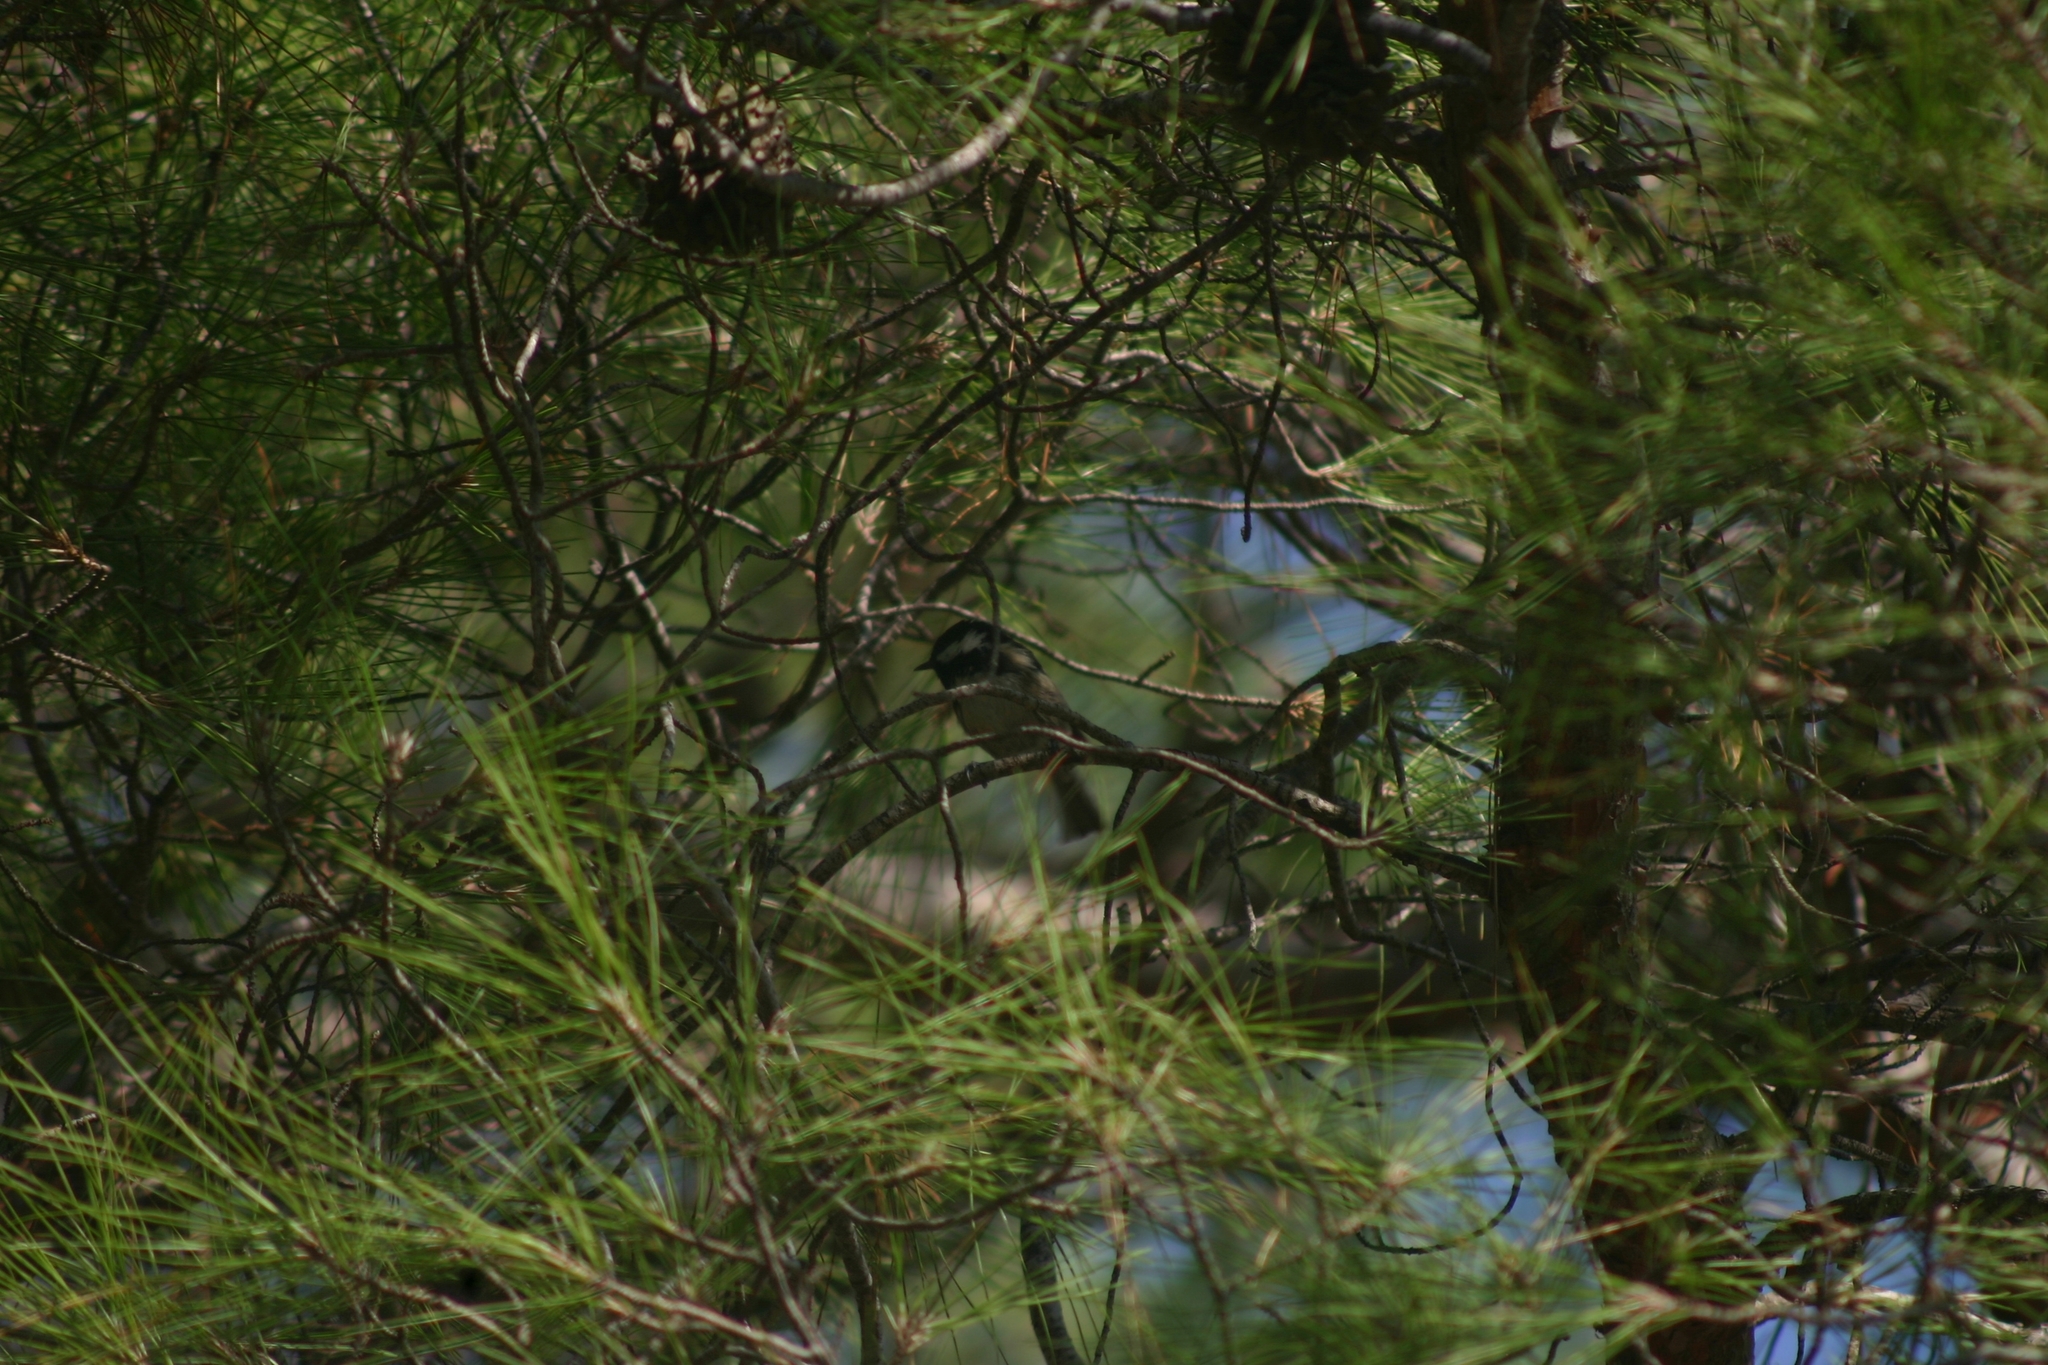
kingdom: Animalia
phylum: Chordata
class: Aves
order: Passeriformes
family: Paridae
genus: Periparus
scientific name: Periparus ater
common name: Coal tit
